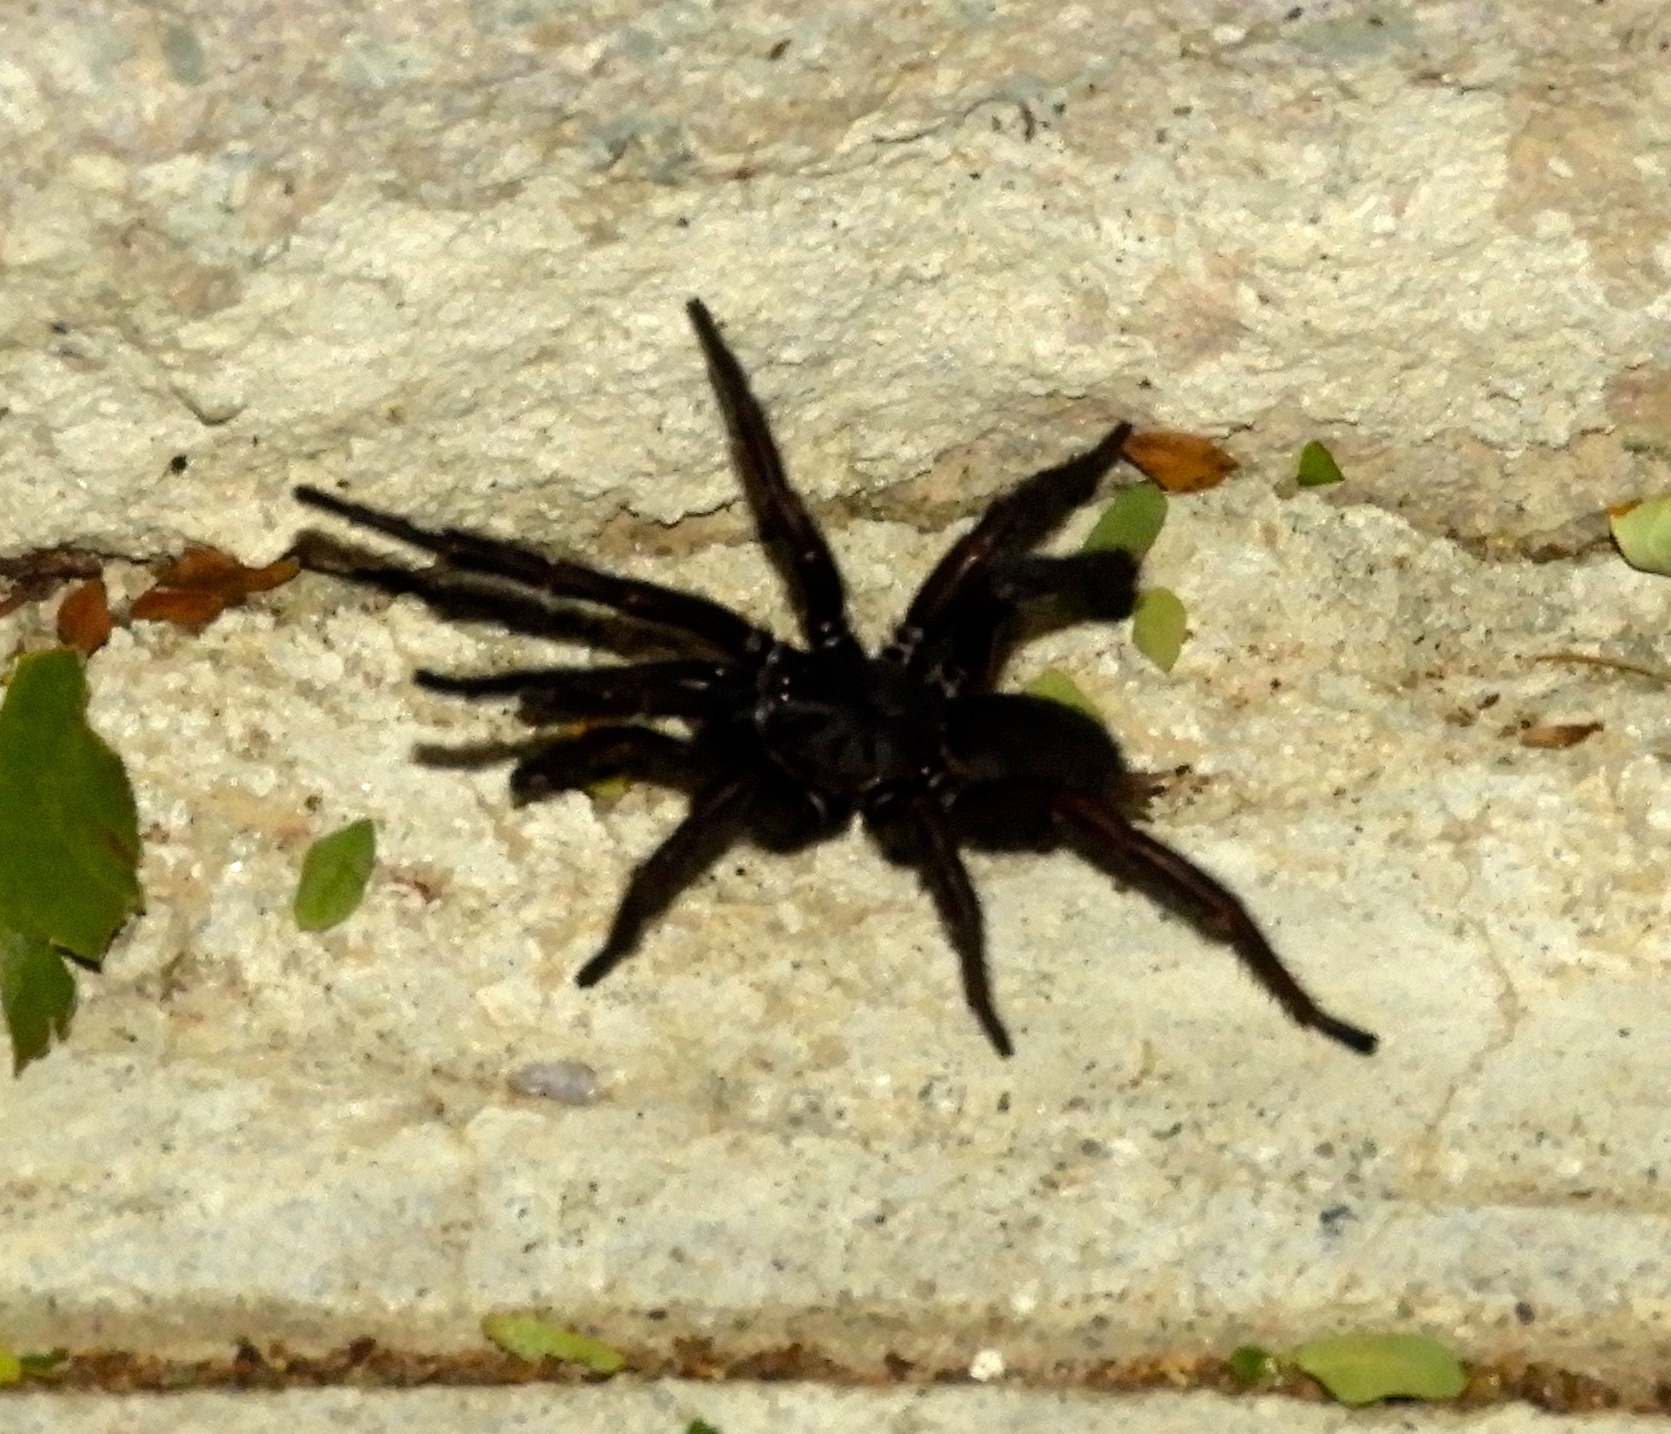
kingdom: Animalia
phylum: Arthropoda
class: Arachnida
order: Araneae
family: Euagridae
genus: Euagrus
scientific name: Euagrus
